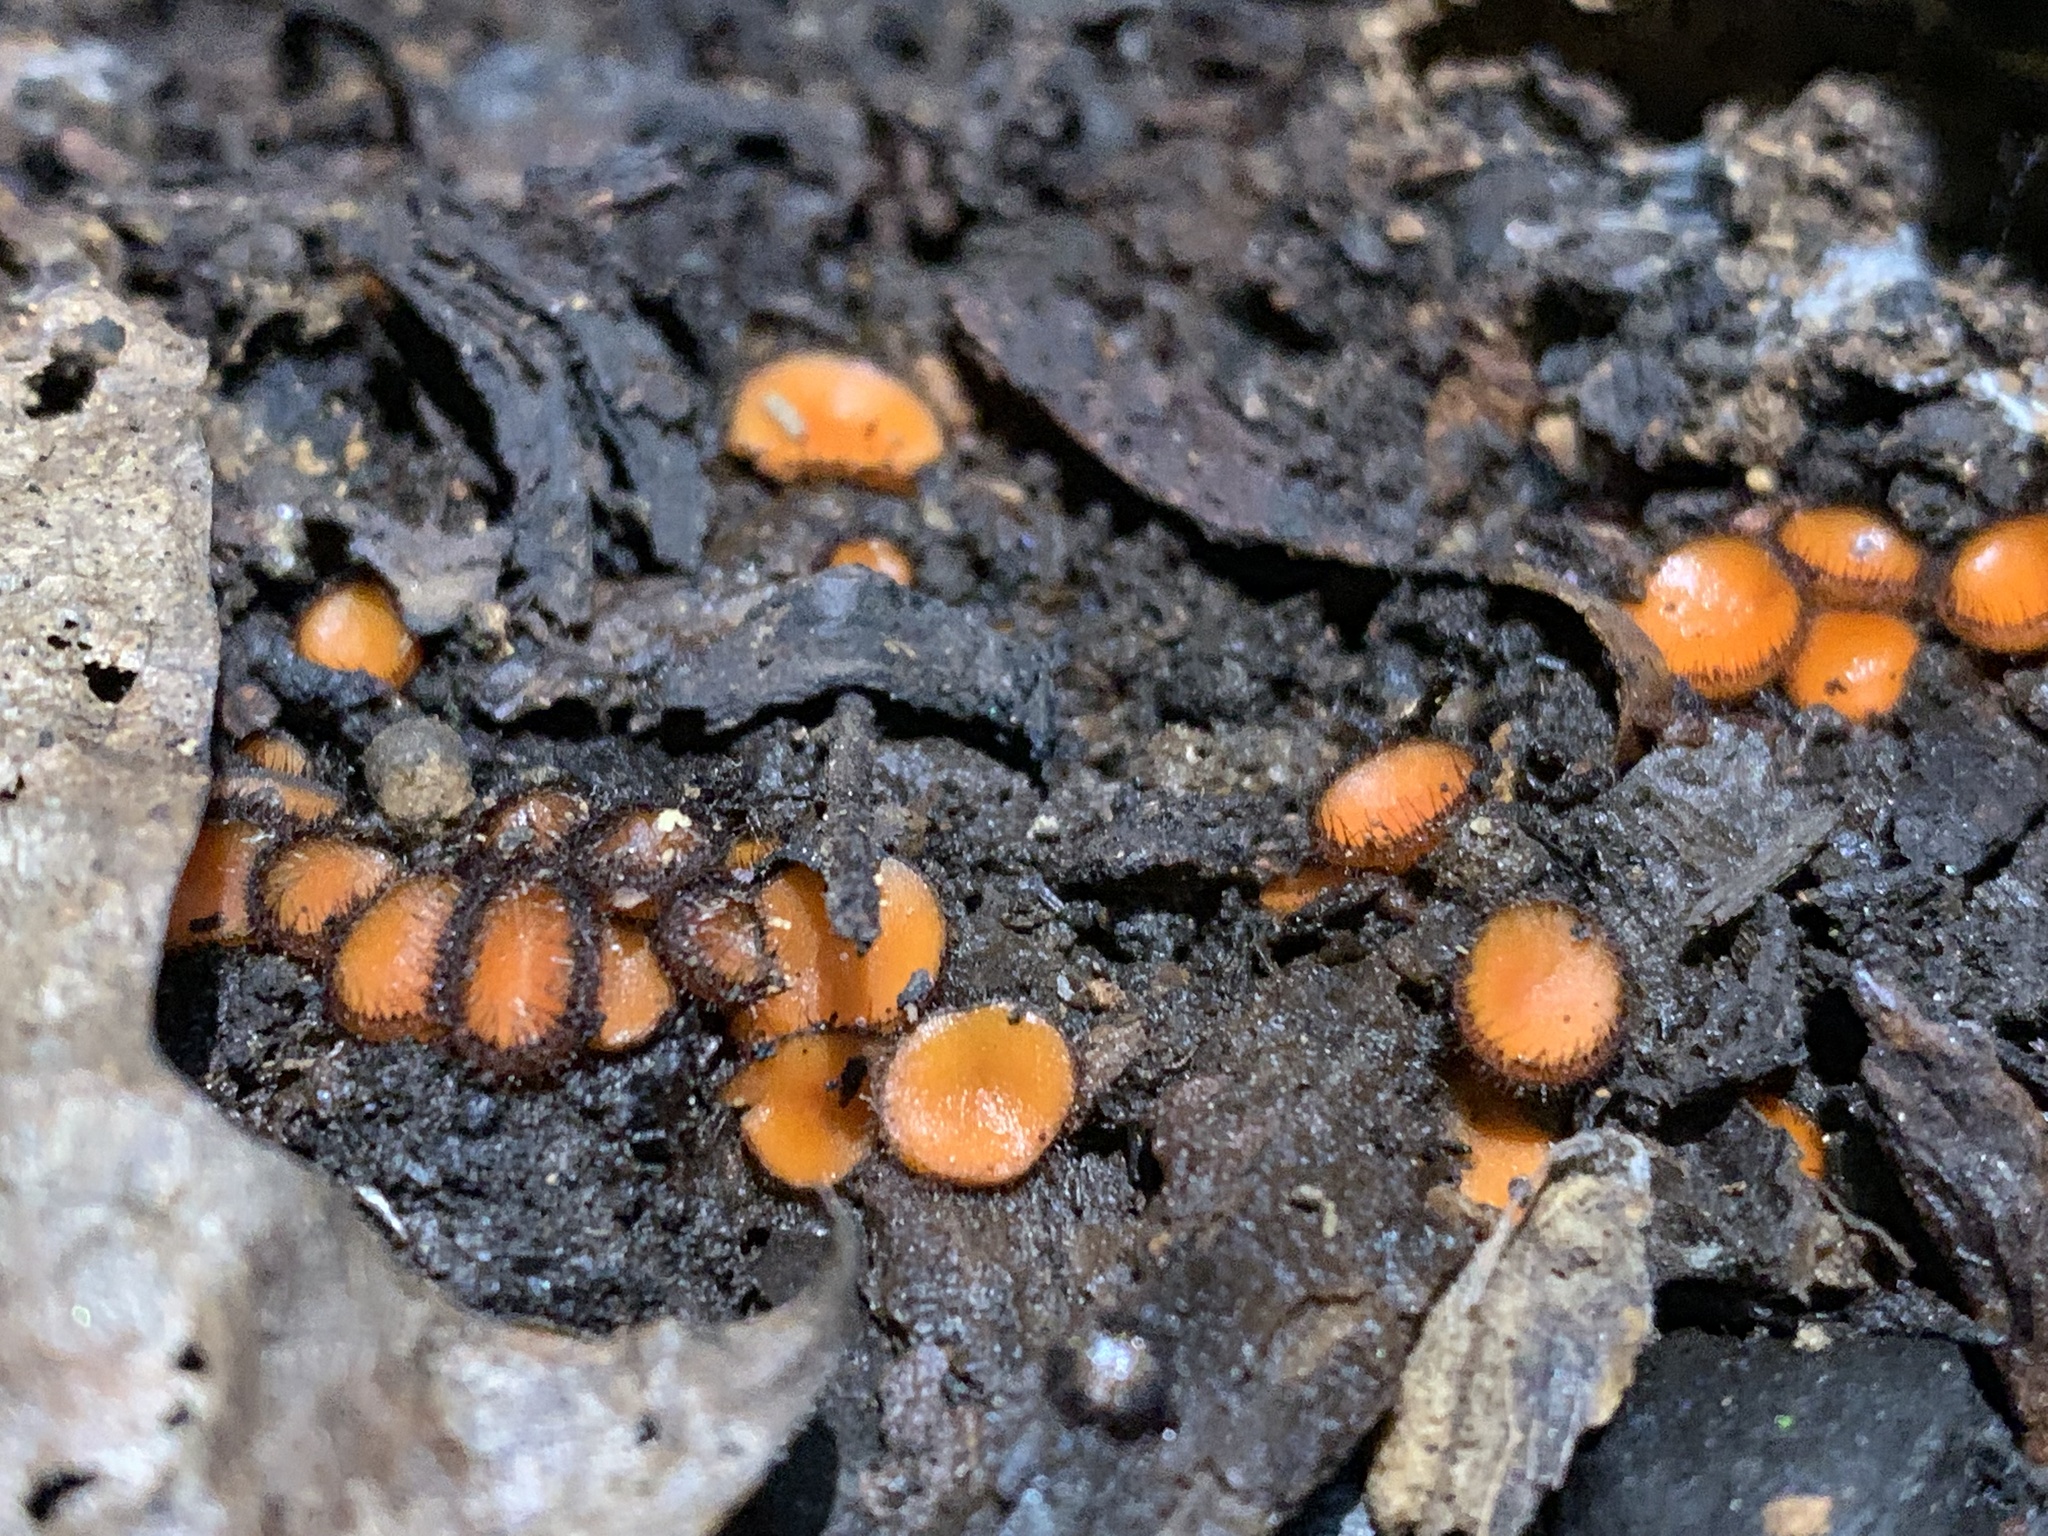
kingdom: Fungi
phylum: Ascomycota
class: Pezizomycetes
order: Pezizales
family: Pyronemataceae
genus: Scutellinia
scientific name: Scutellinia
